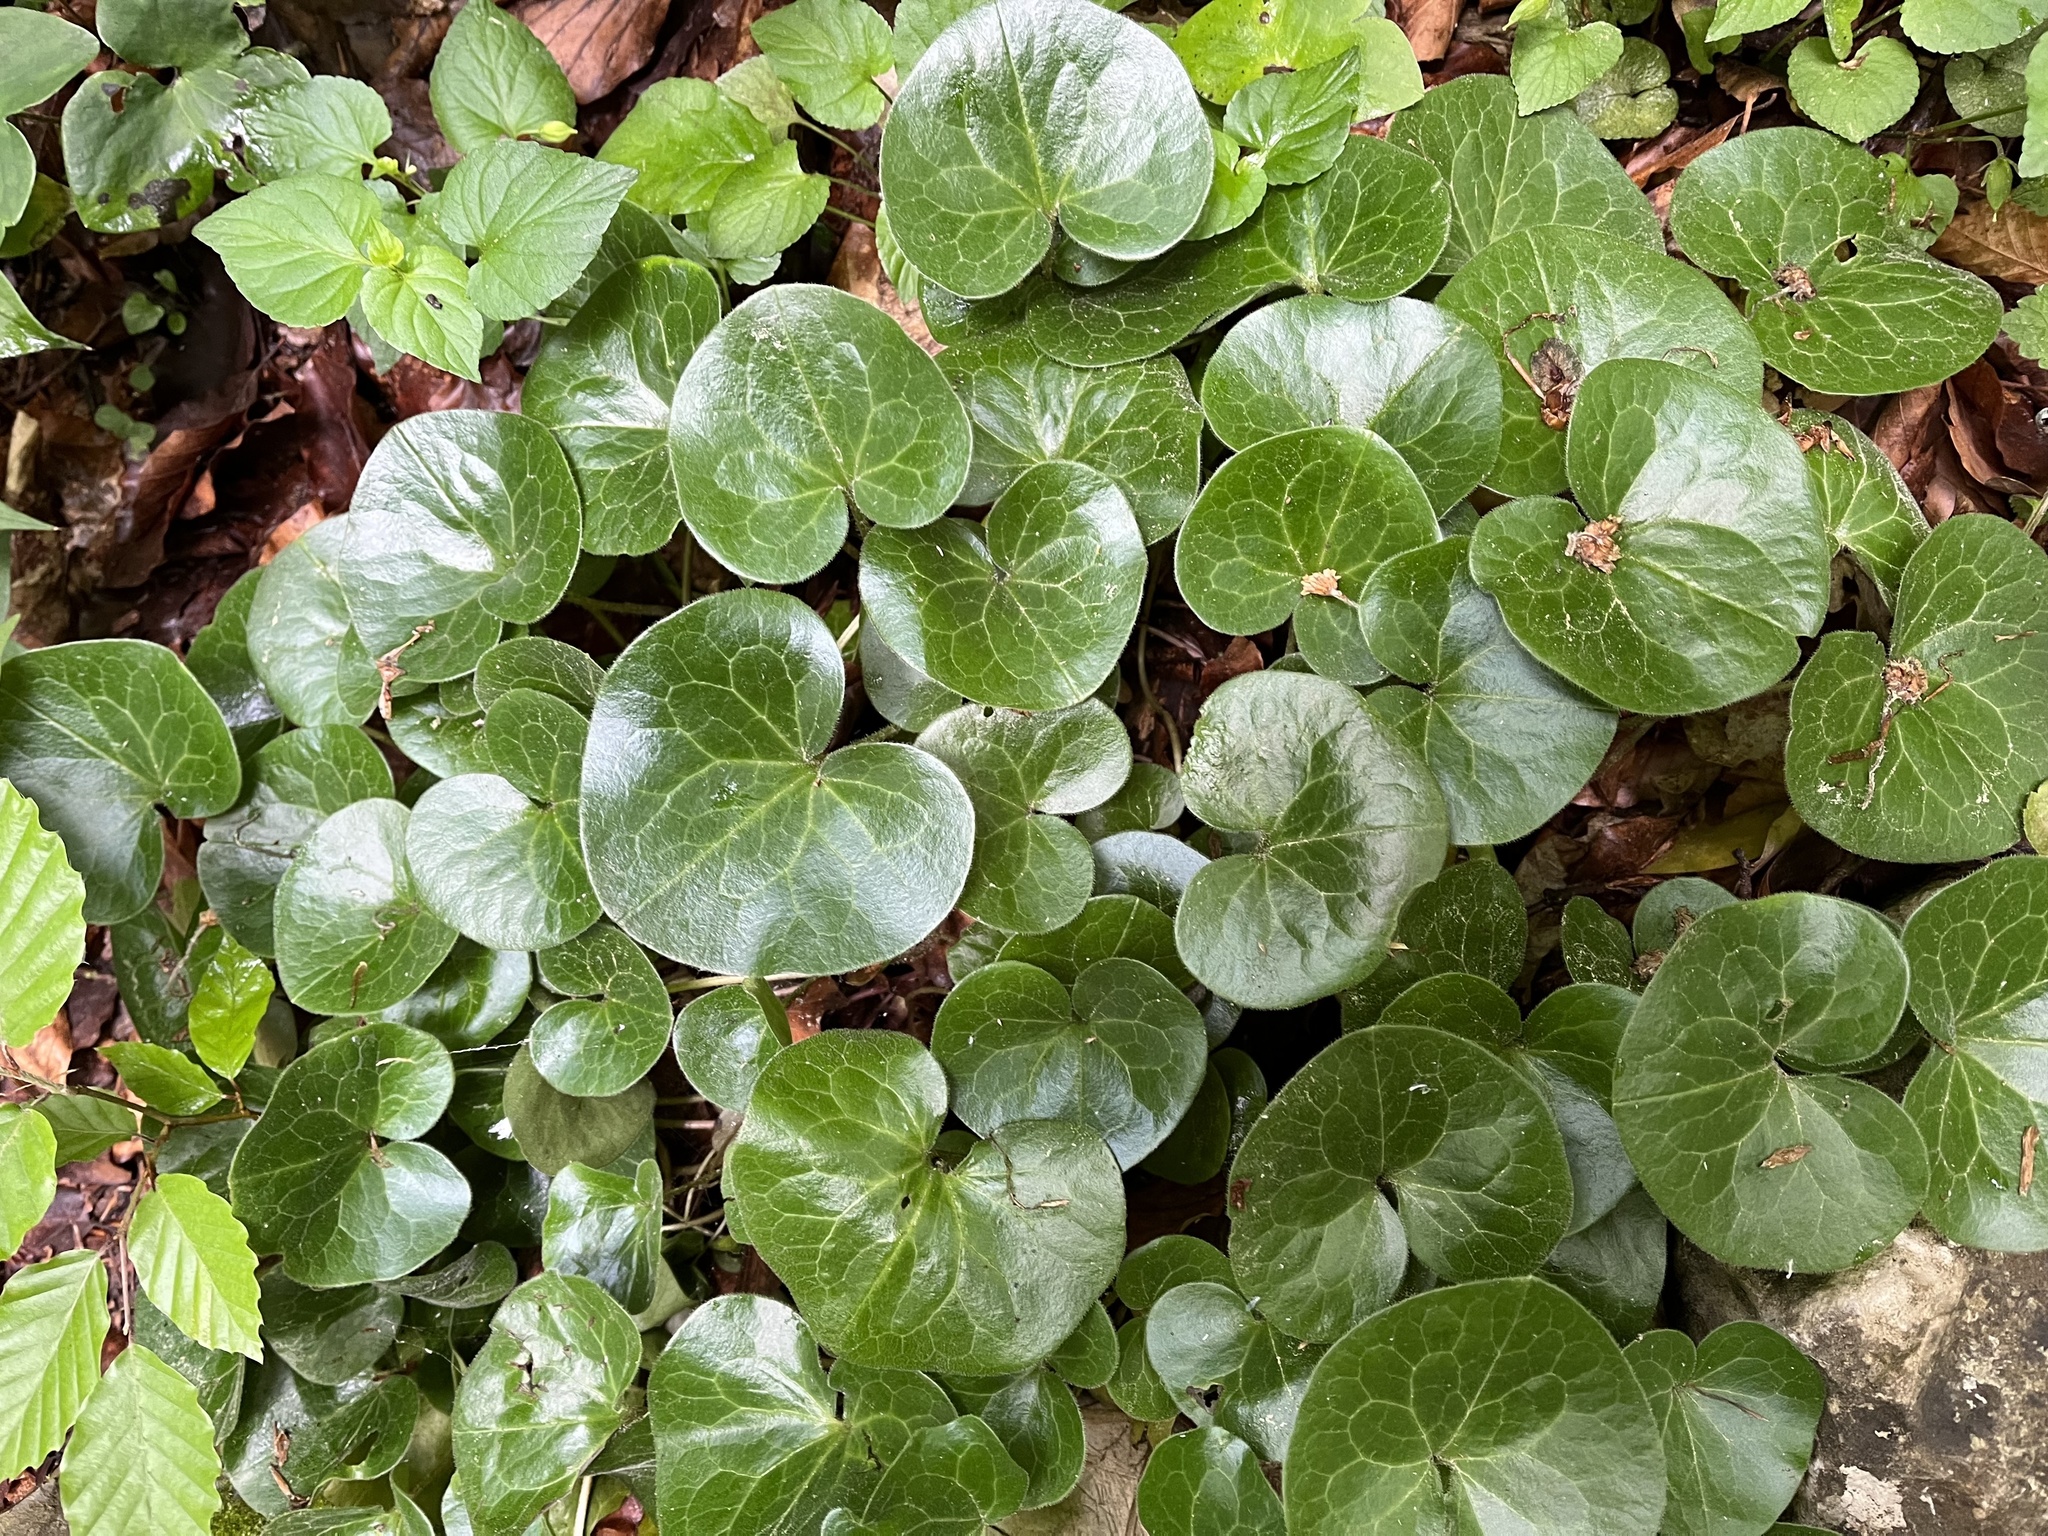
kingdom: Plantae
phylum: Tracheophyta
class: Magnoliopsida
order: Piperales
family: Aristolochiaceae
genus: Asarum
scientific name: Asarum europaeum
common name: Asarabacca
